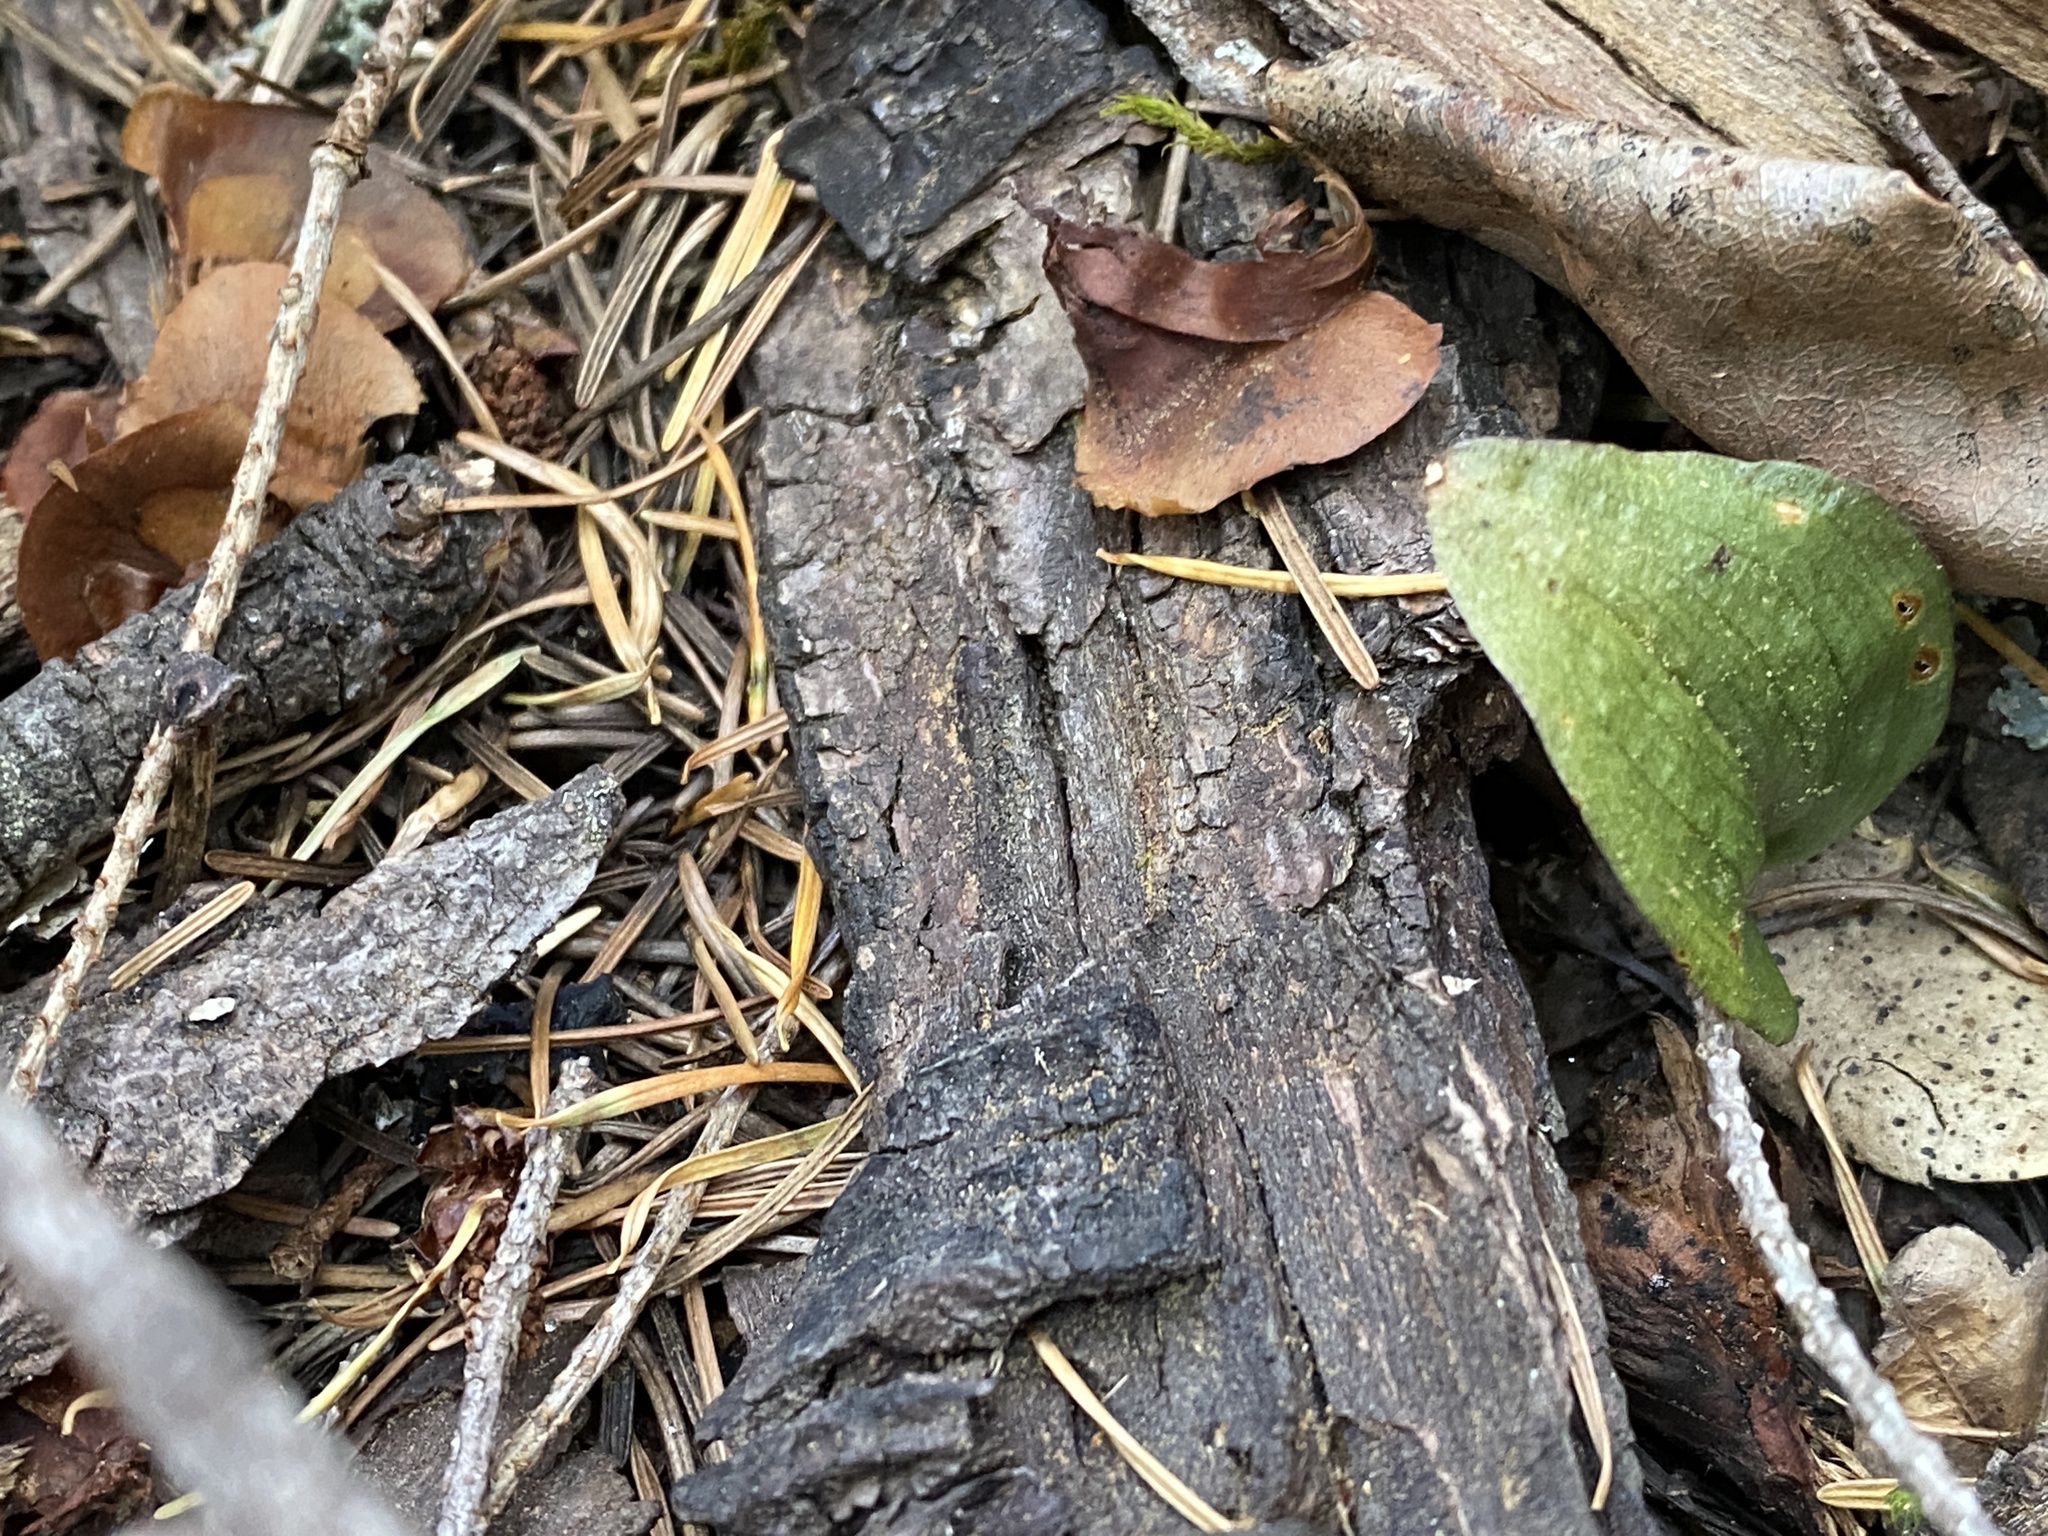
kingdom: Plantae
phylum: Tracheophyta
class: Liliopsida
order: Asparagales
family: Orchidaceae
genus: Calypso
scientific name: Calypso bulbosa
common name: Calypso
